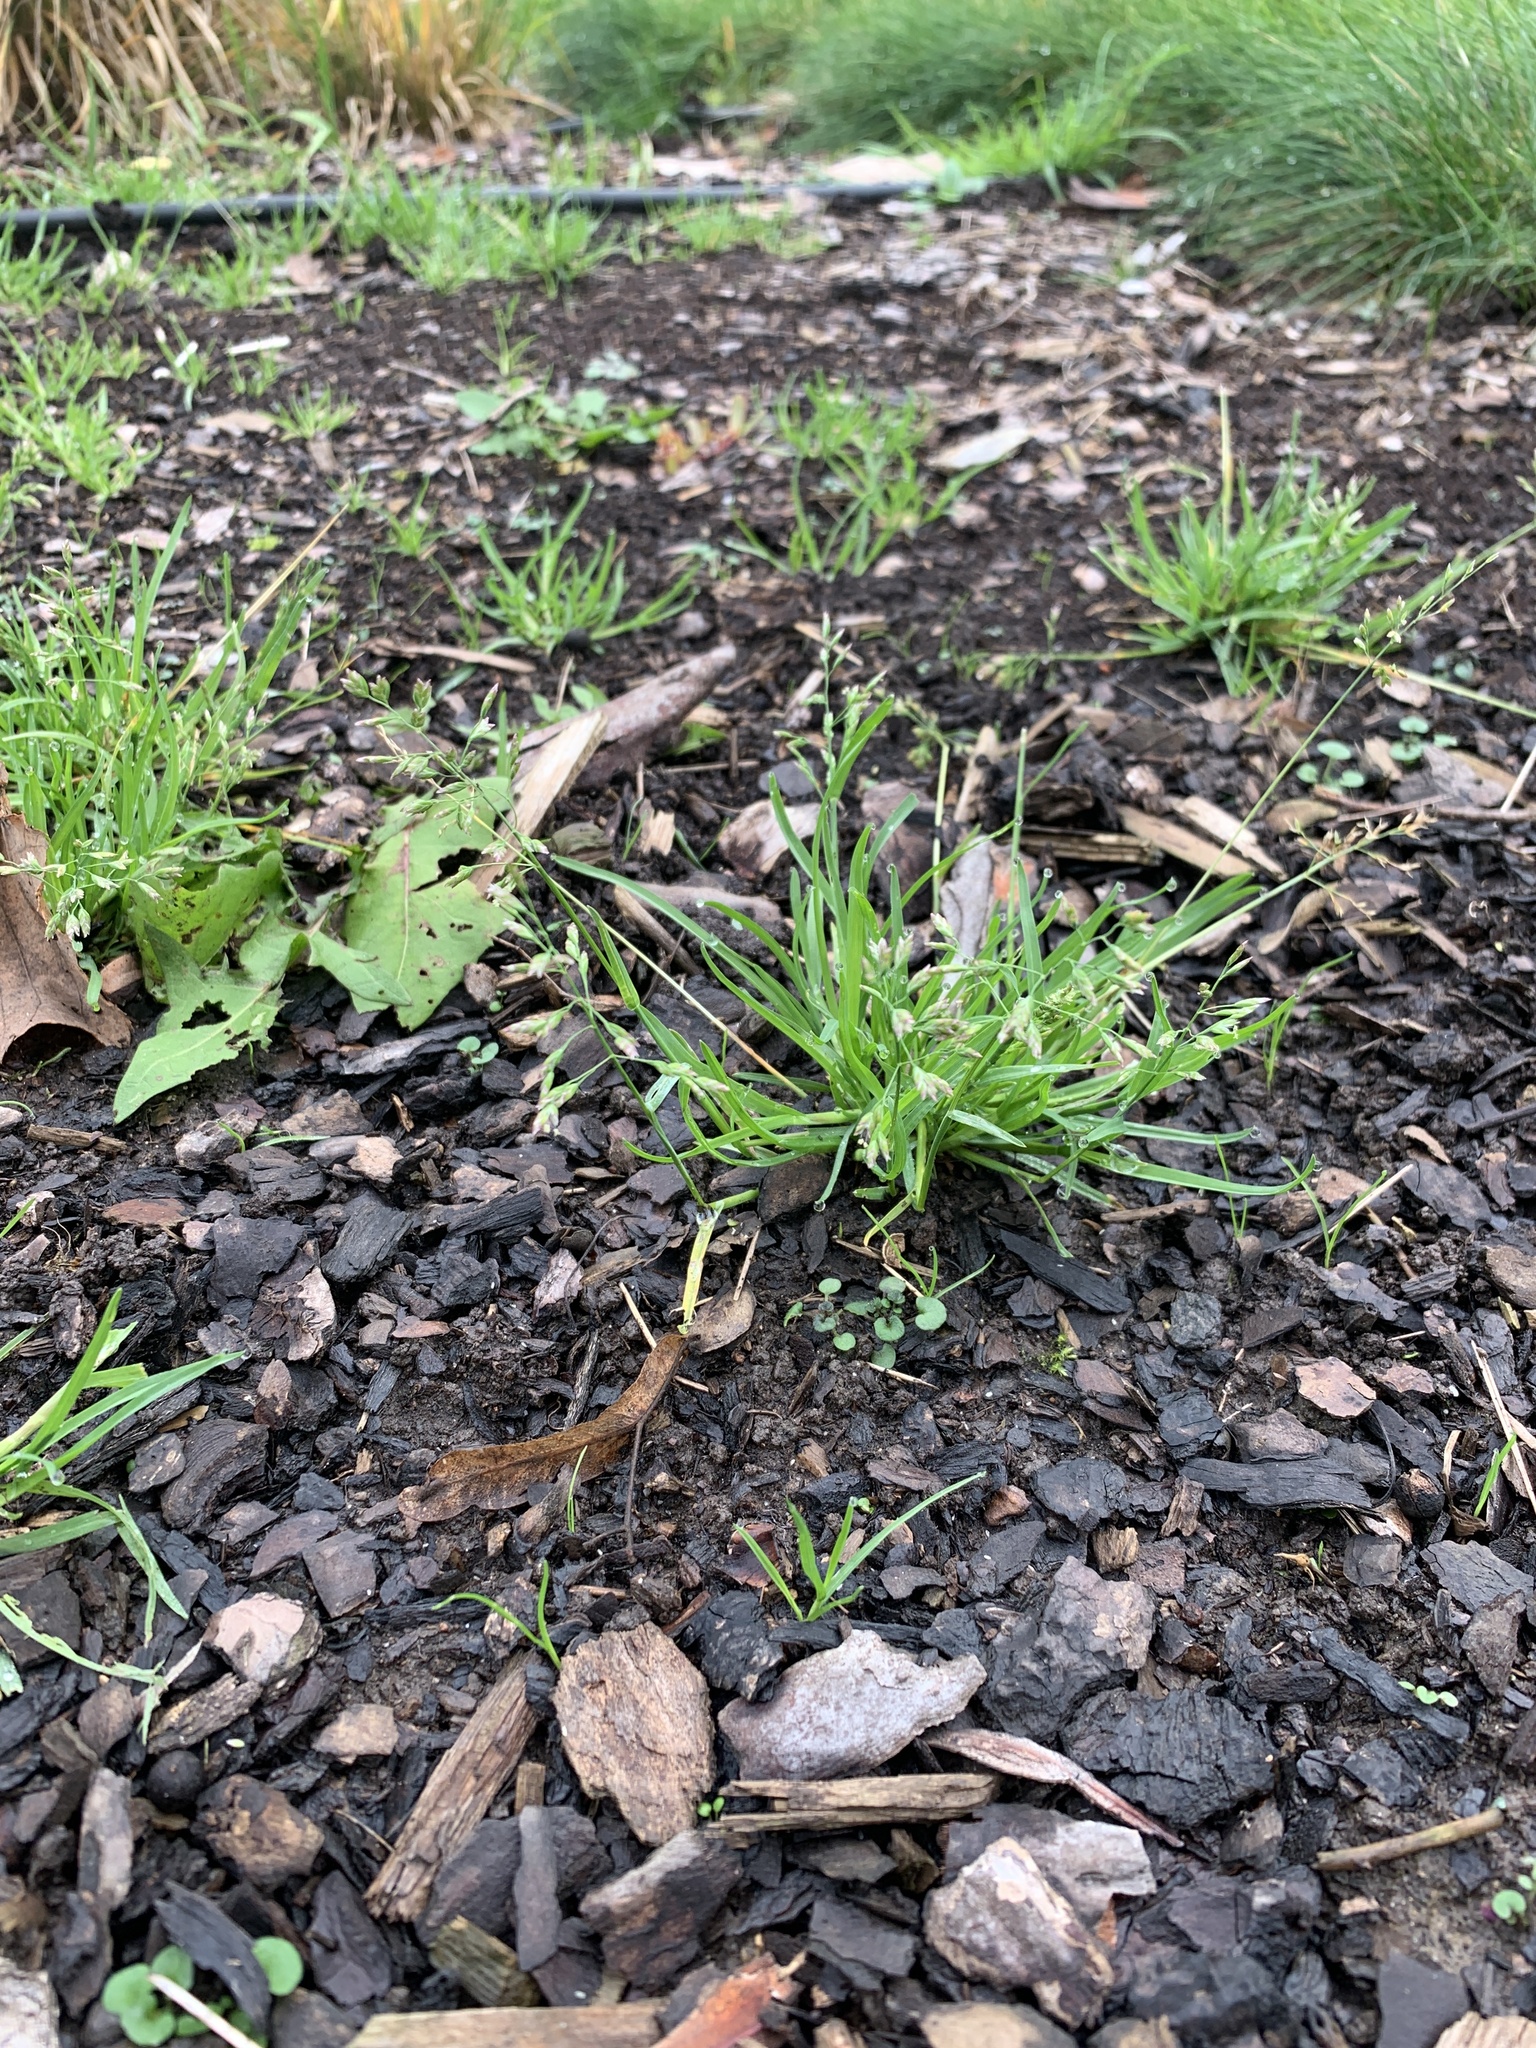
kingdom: Plantae
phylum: Tracheophyta
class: Liliopsida
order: Poales
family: Poaceae
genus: Poa
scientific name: Poa annua
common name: Annual bluegrass
